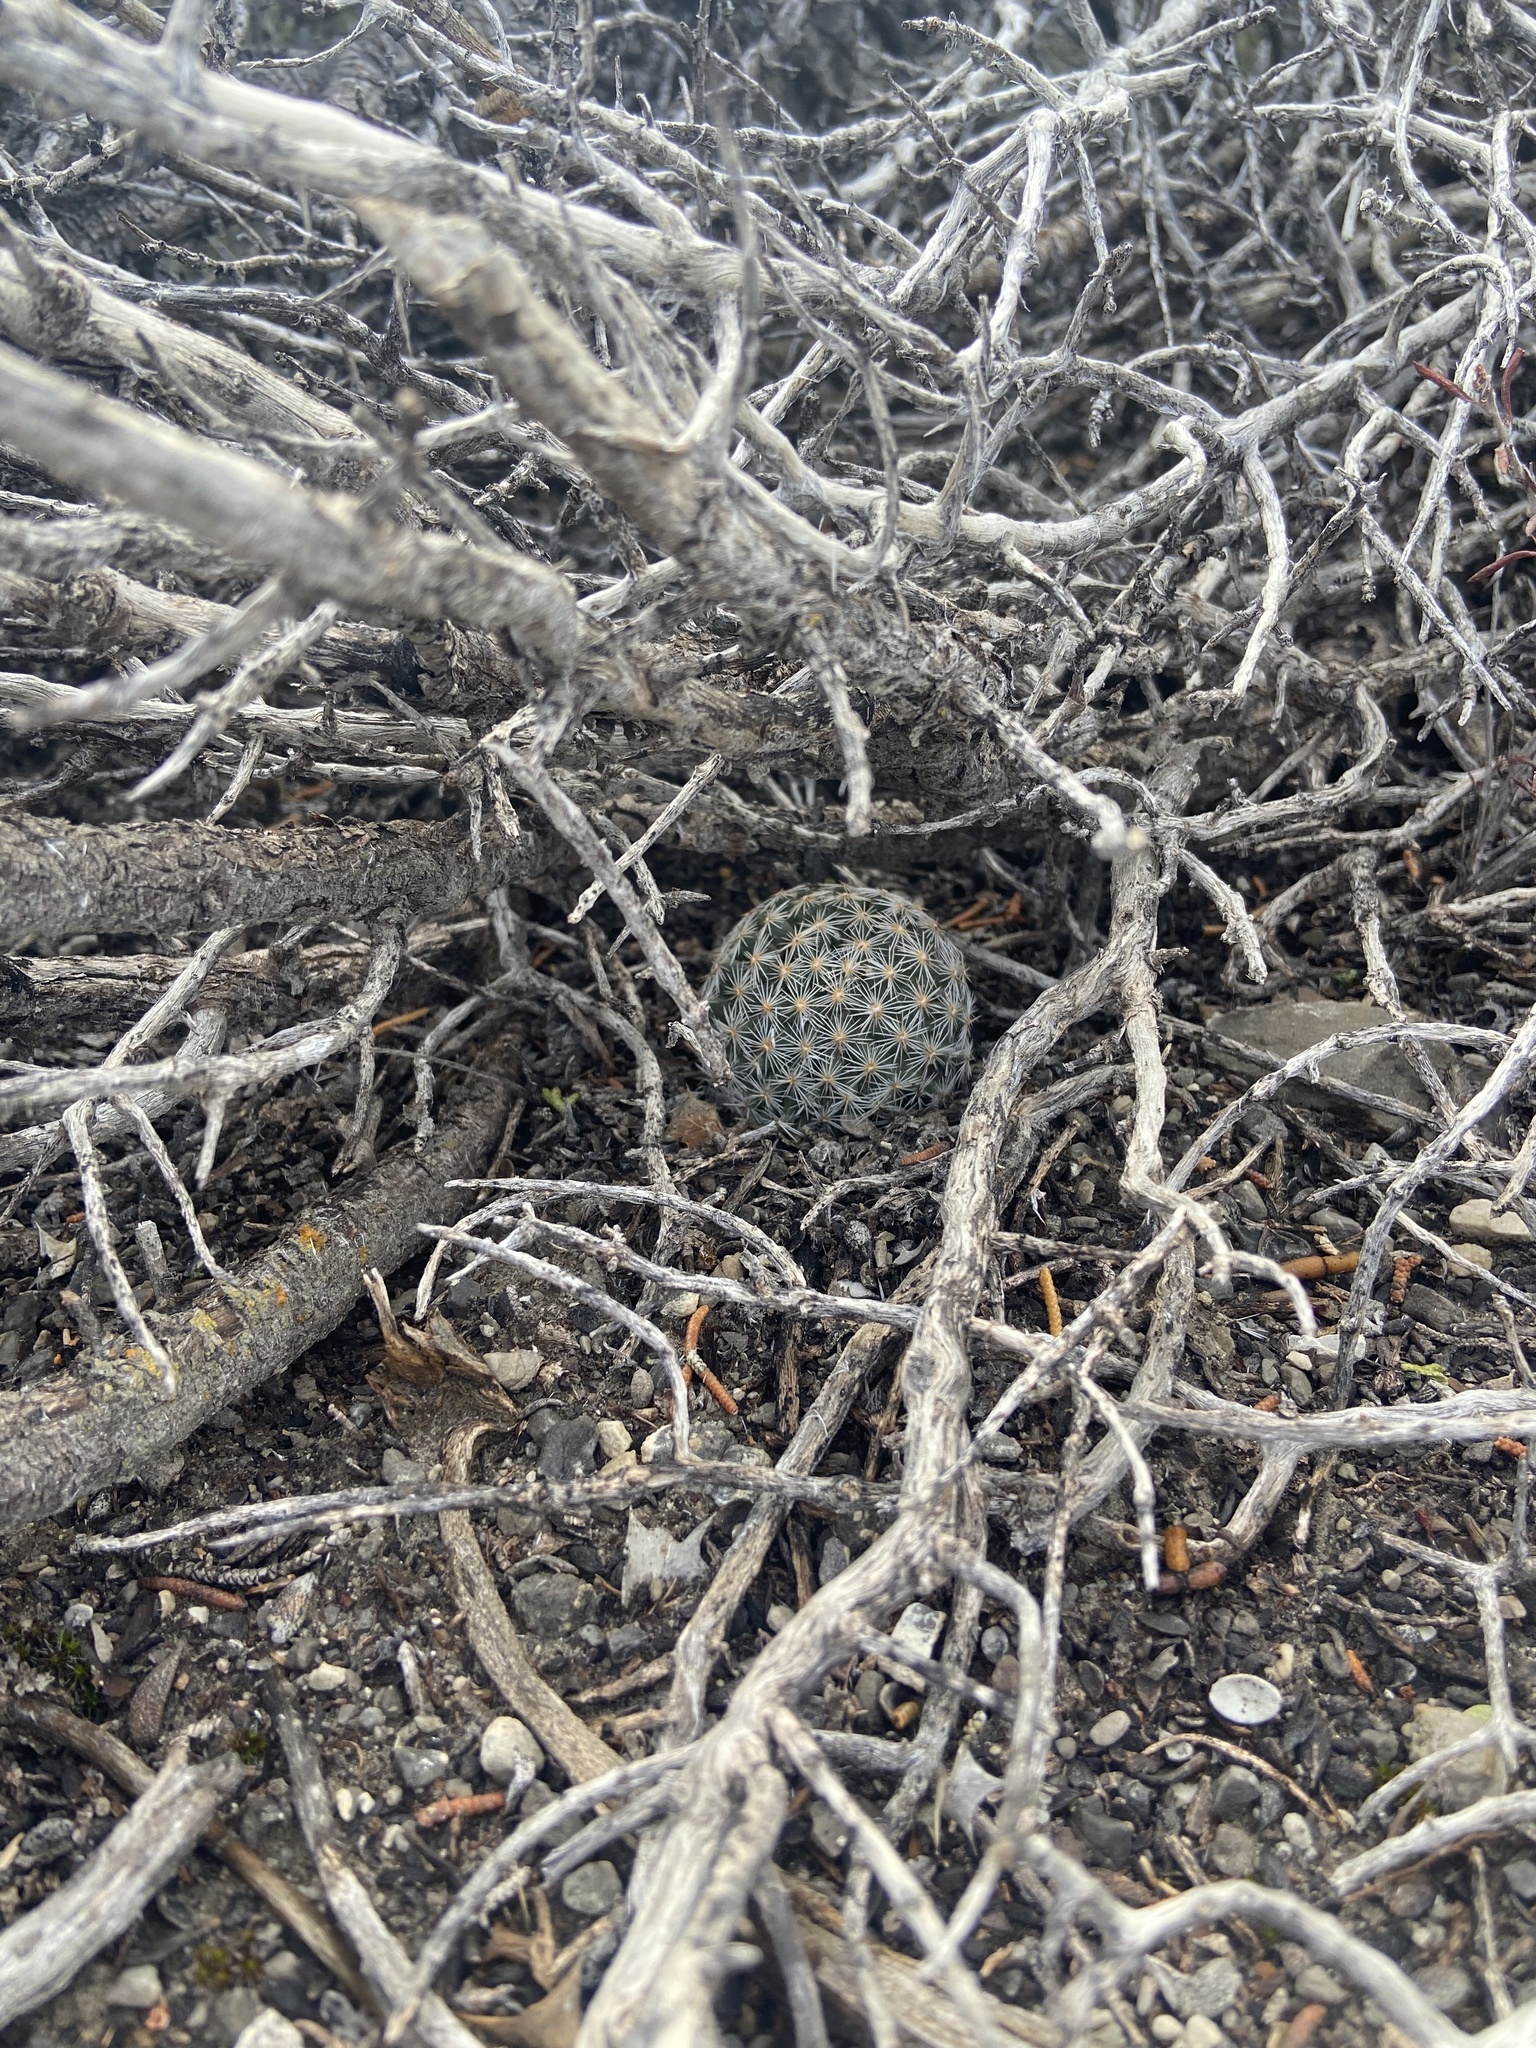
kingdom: Plantae
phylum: Tracheophyta
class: Magnoliopsida
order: Caryophyllales
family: Cactaceae
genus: Pelecyphora
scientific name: Pelecyphora vivipara
